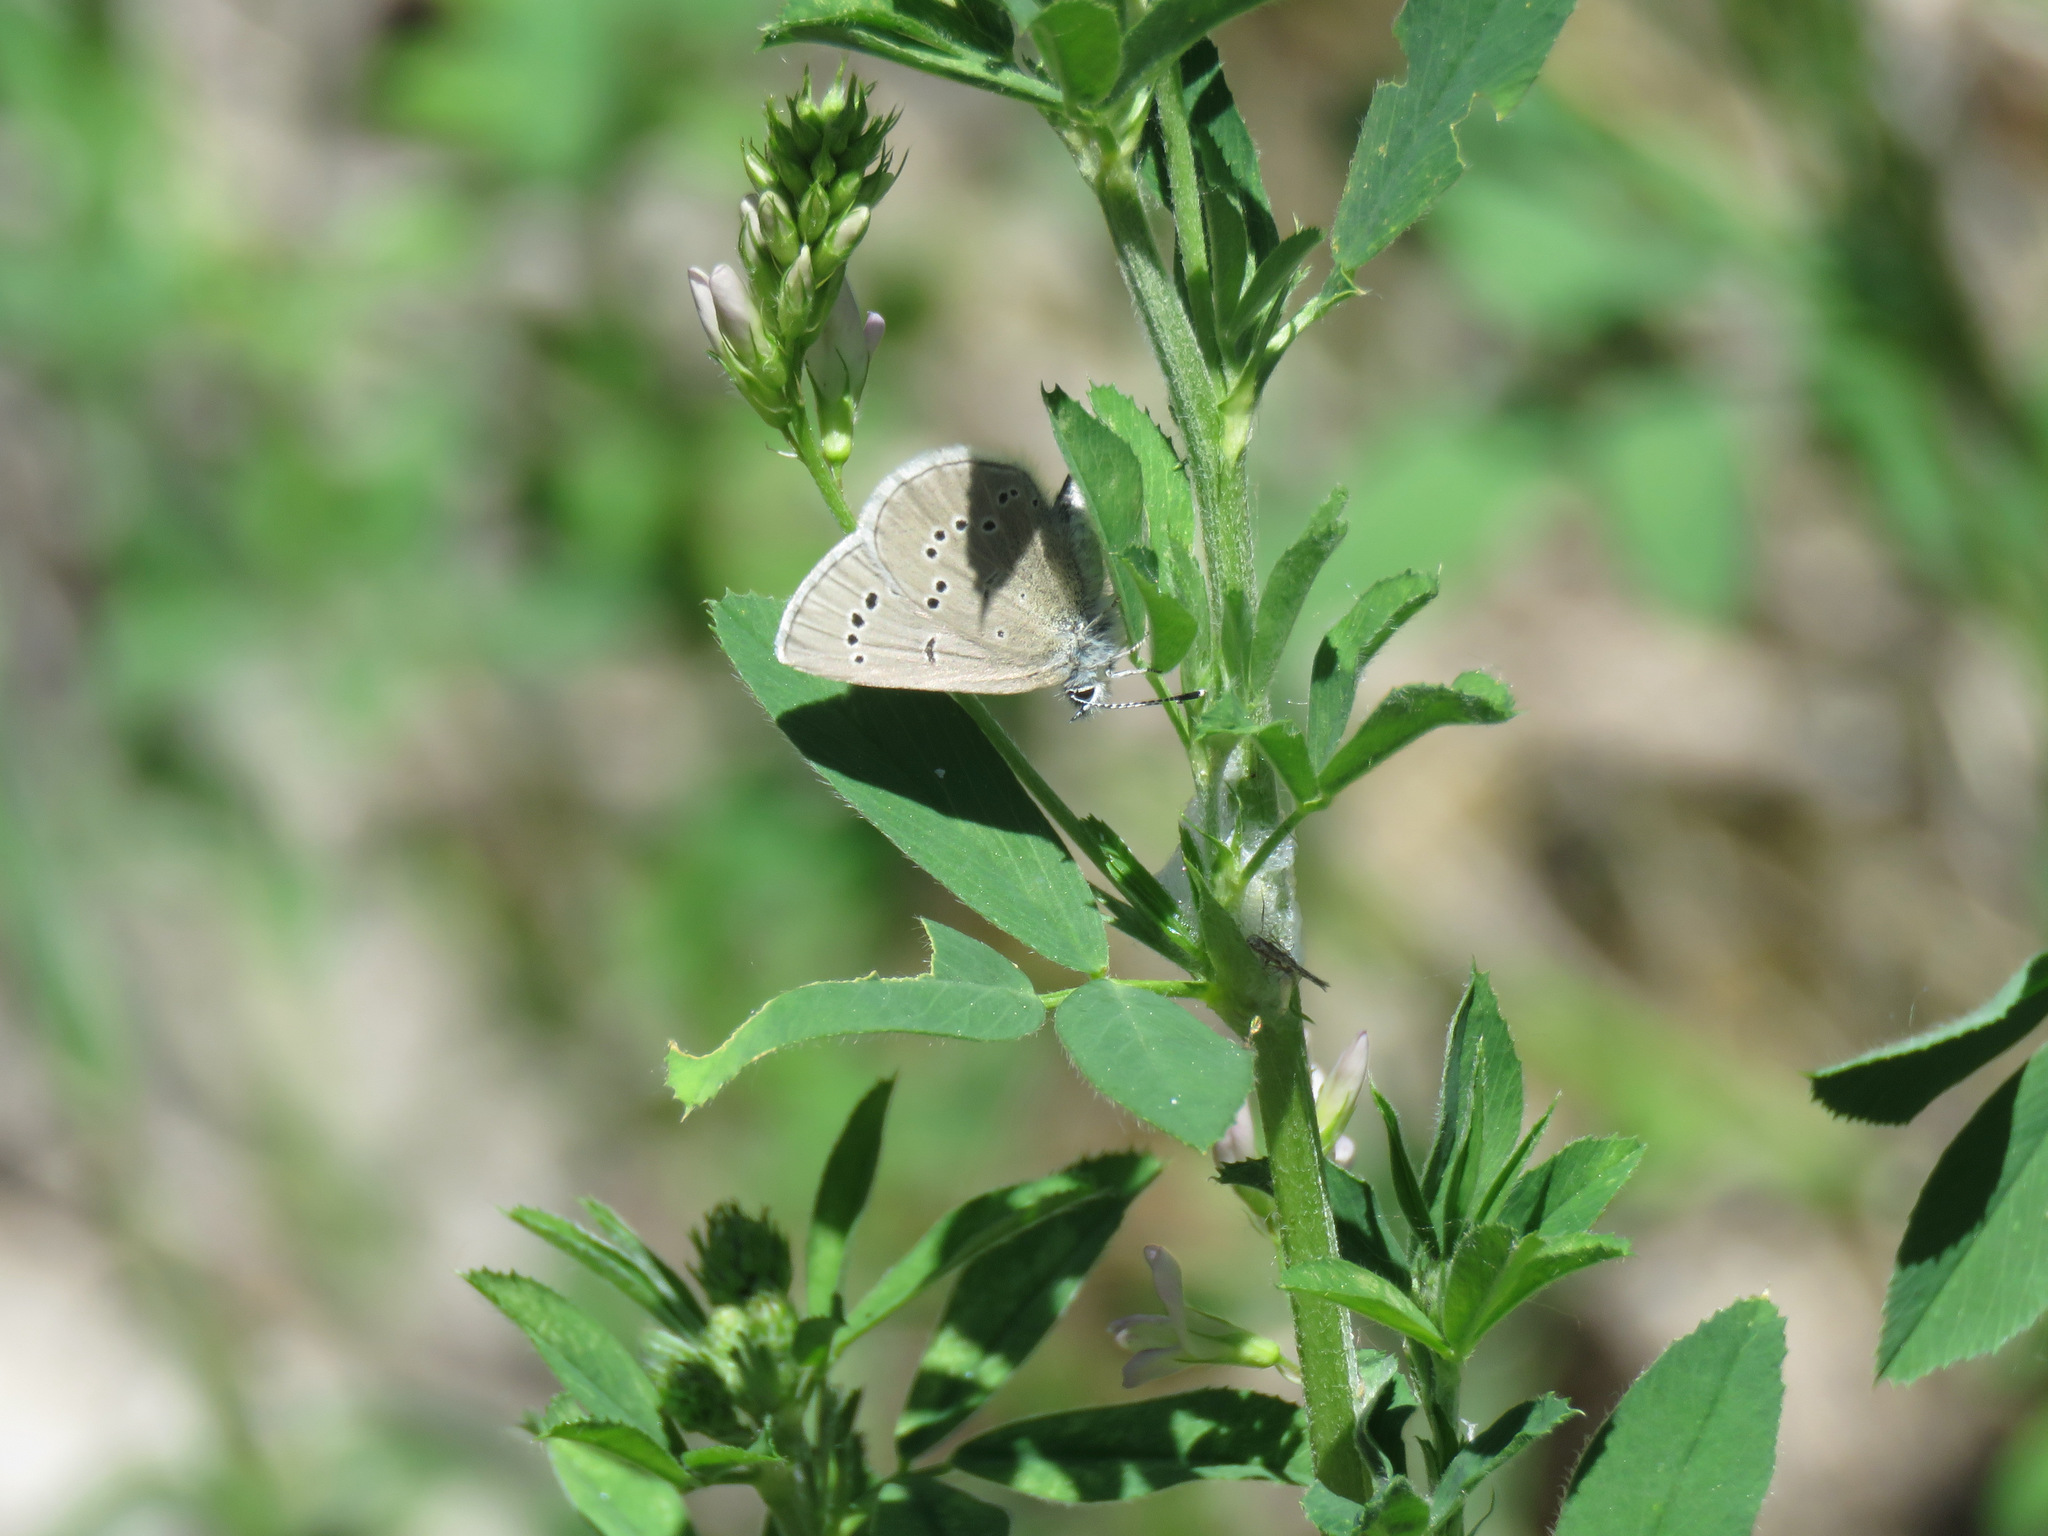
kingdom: Animalia
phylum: Arthropoda
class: Insecta
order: Lepidoptera
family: Lycaenidae
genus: Glaucopsyche
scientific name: Glaucopsyche lygdamus
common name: Silvery blue
